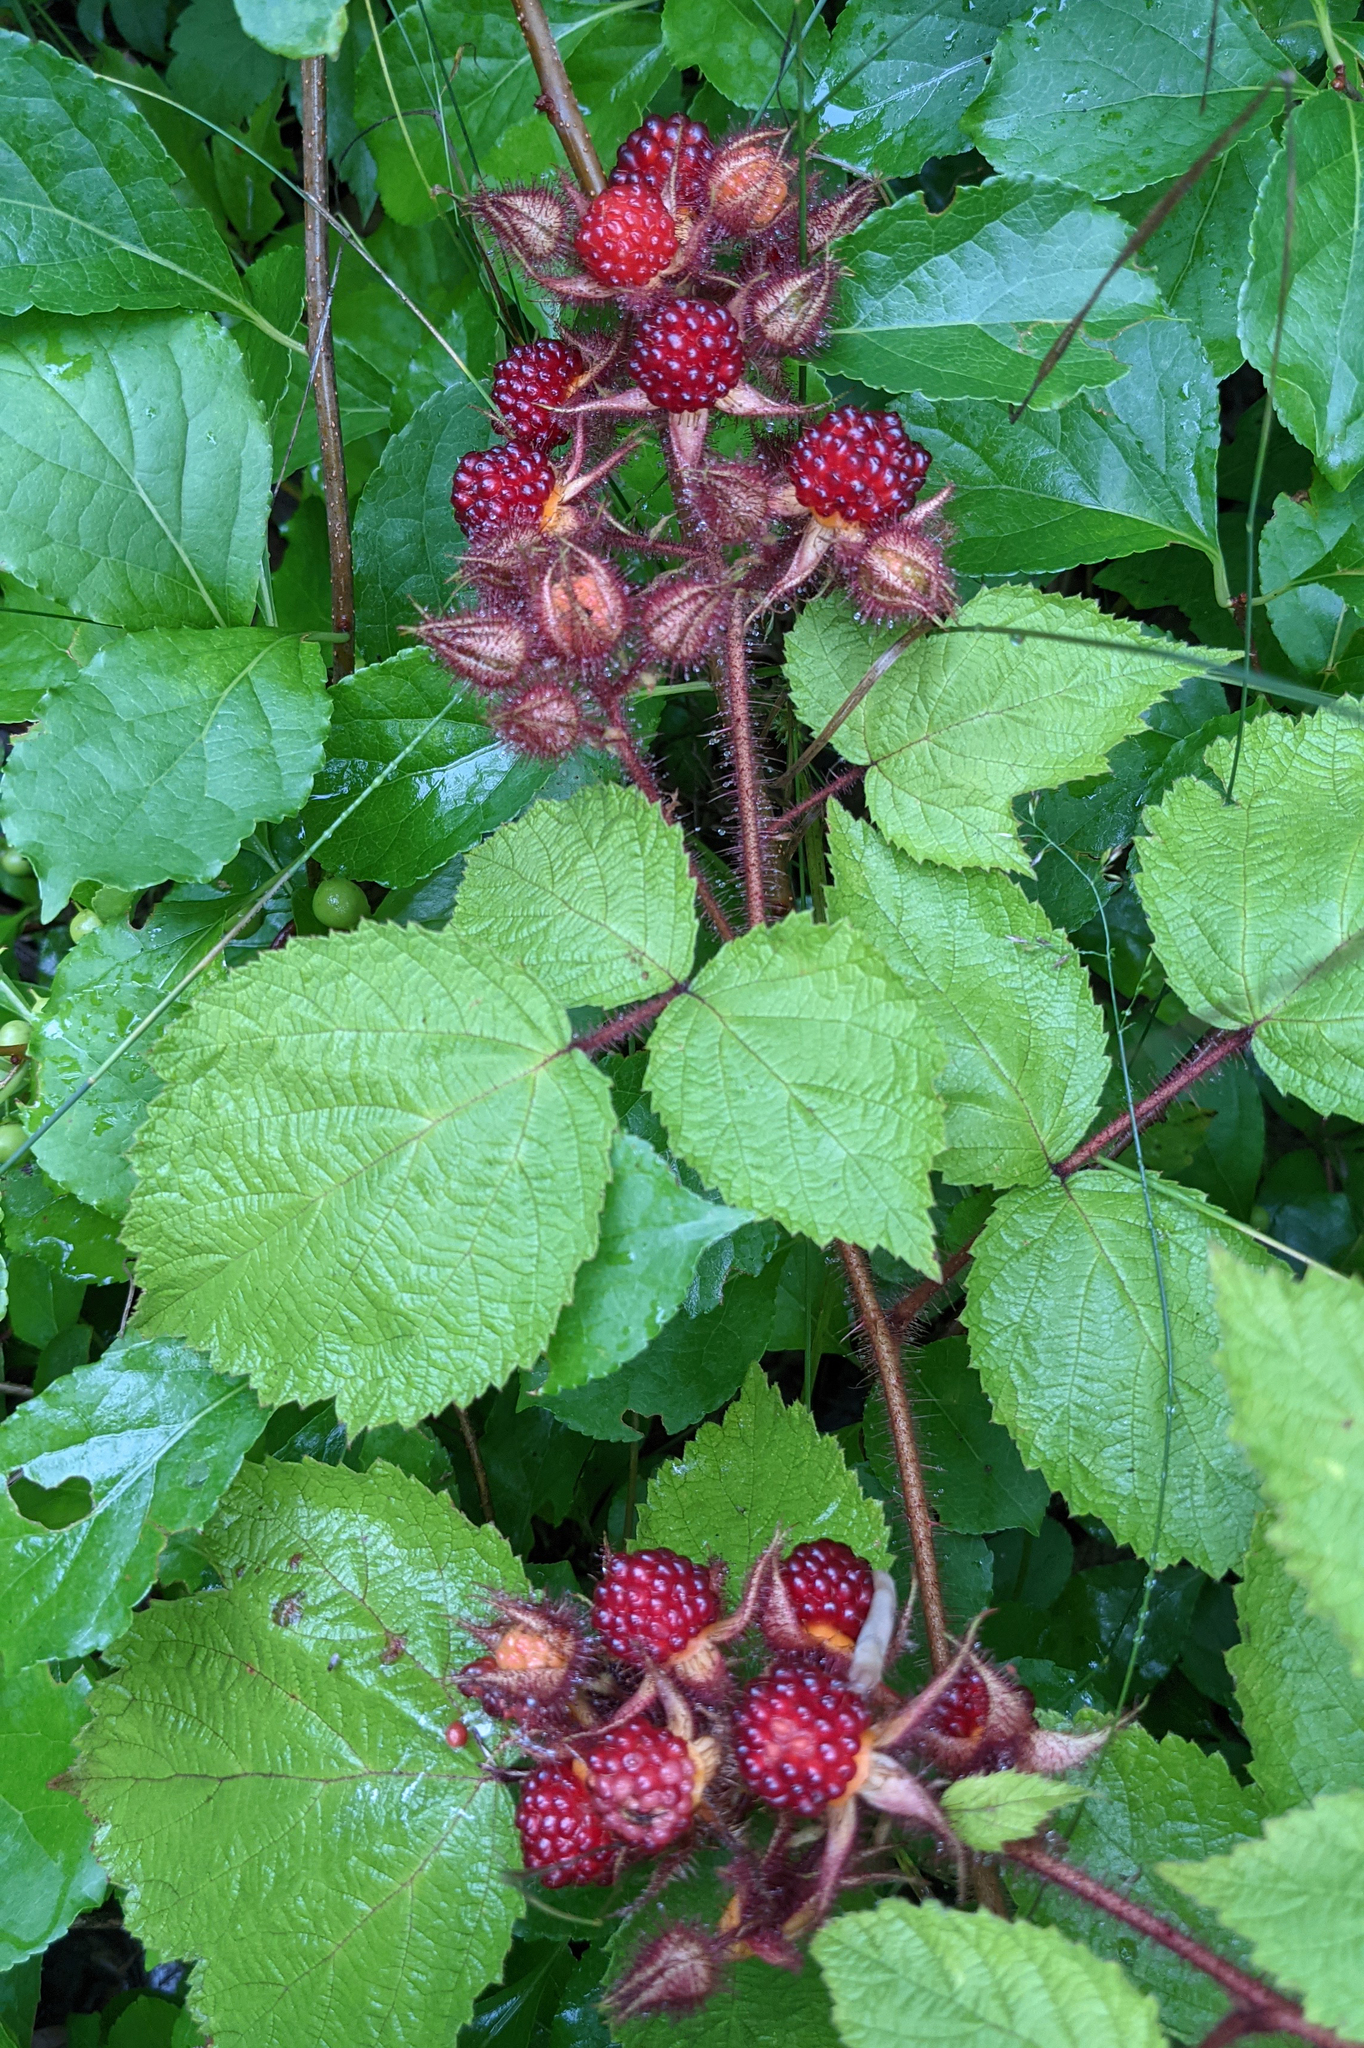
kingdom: Plantae
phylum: Tracheophyta
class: Magnoliopsida
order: Rosales
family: Rosaceae
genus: Rubus
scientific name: Rubus phoenicolasius
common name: Japanese wineberry
